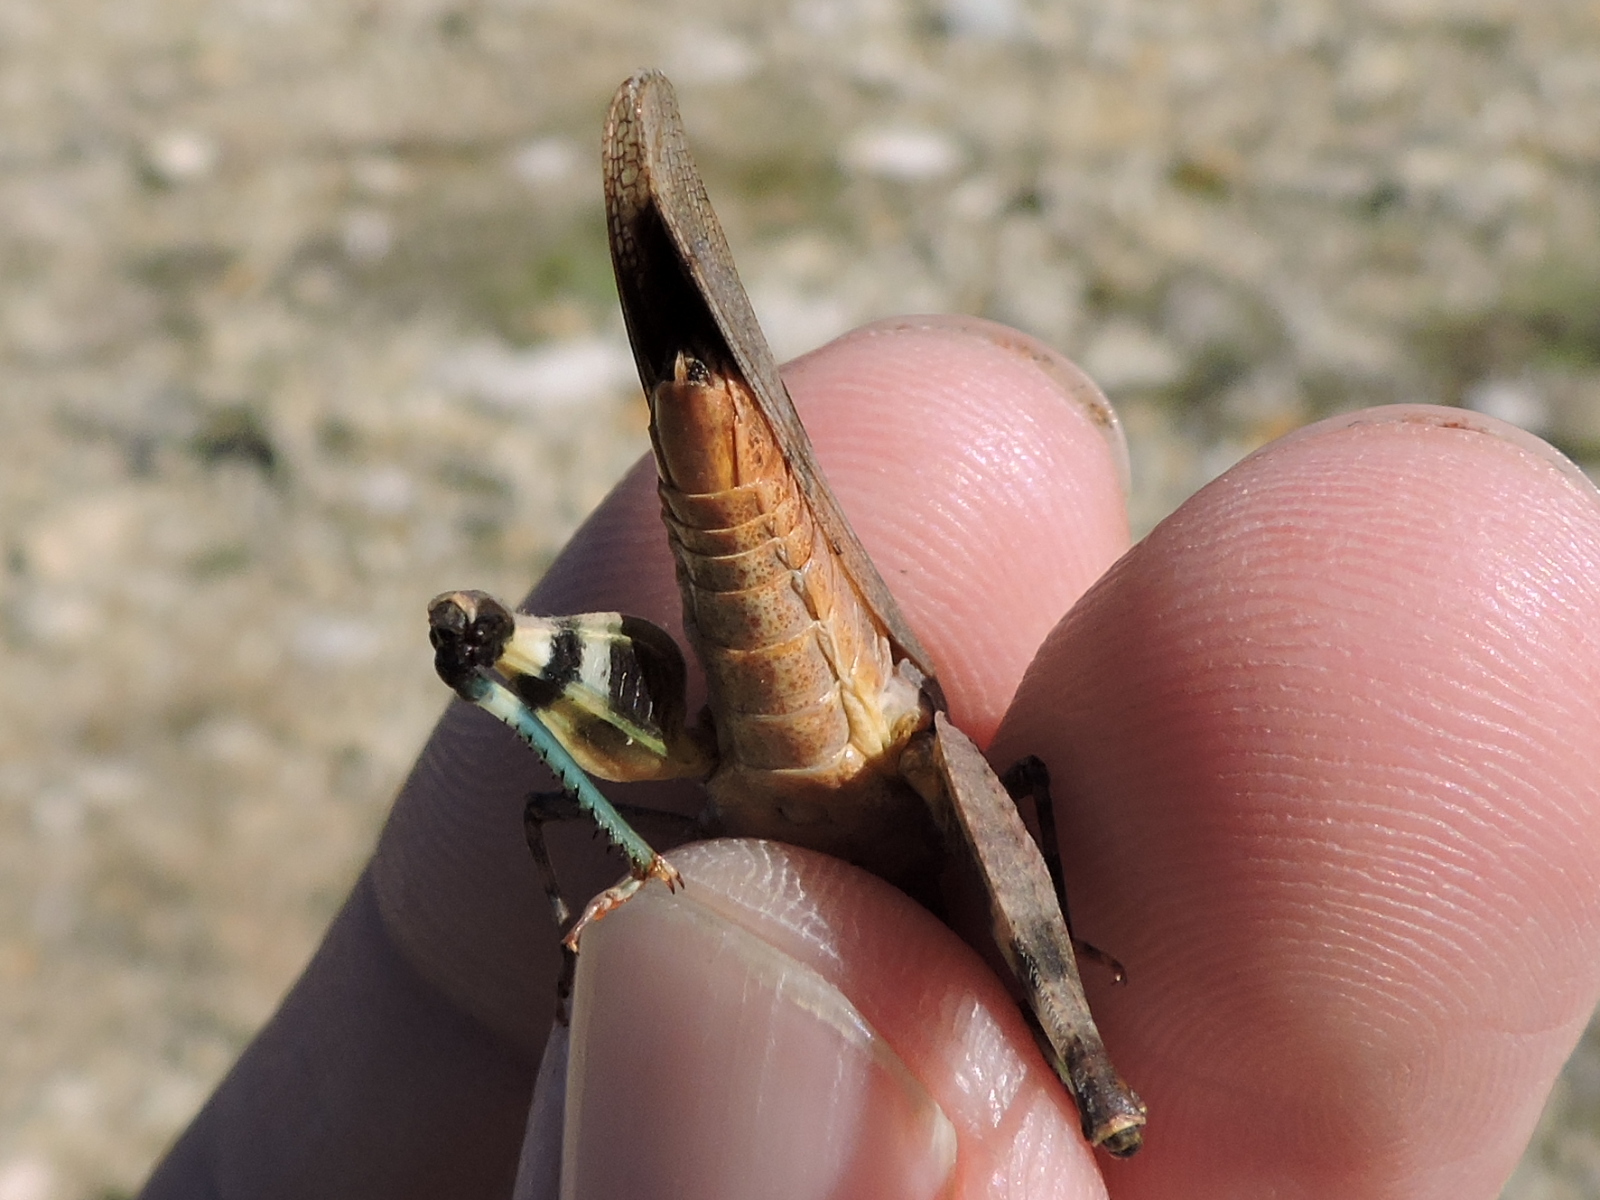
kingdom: Animalia
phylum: Arthropoda
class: Insecta
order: Orthoptera
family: Acrididae
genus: Lactista
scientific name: Lactista azteca
